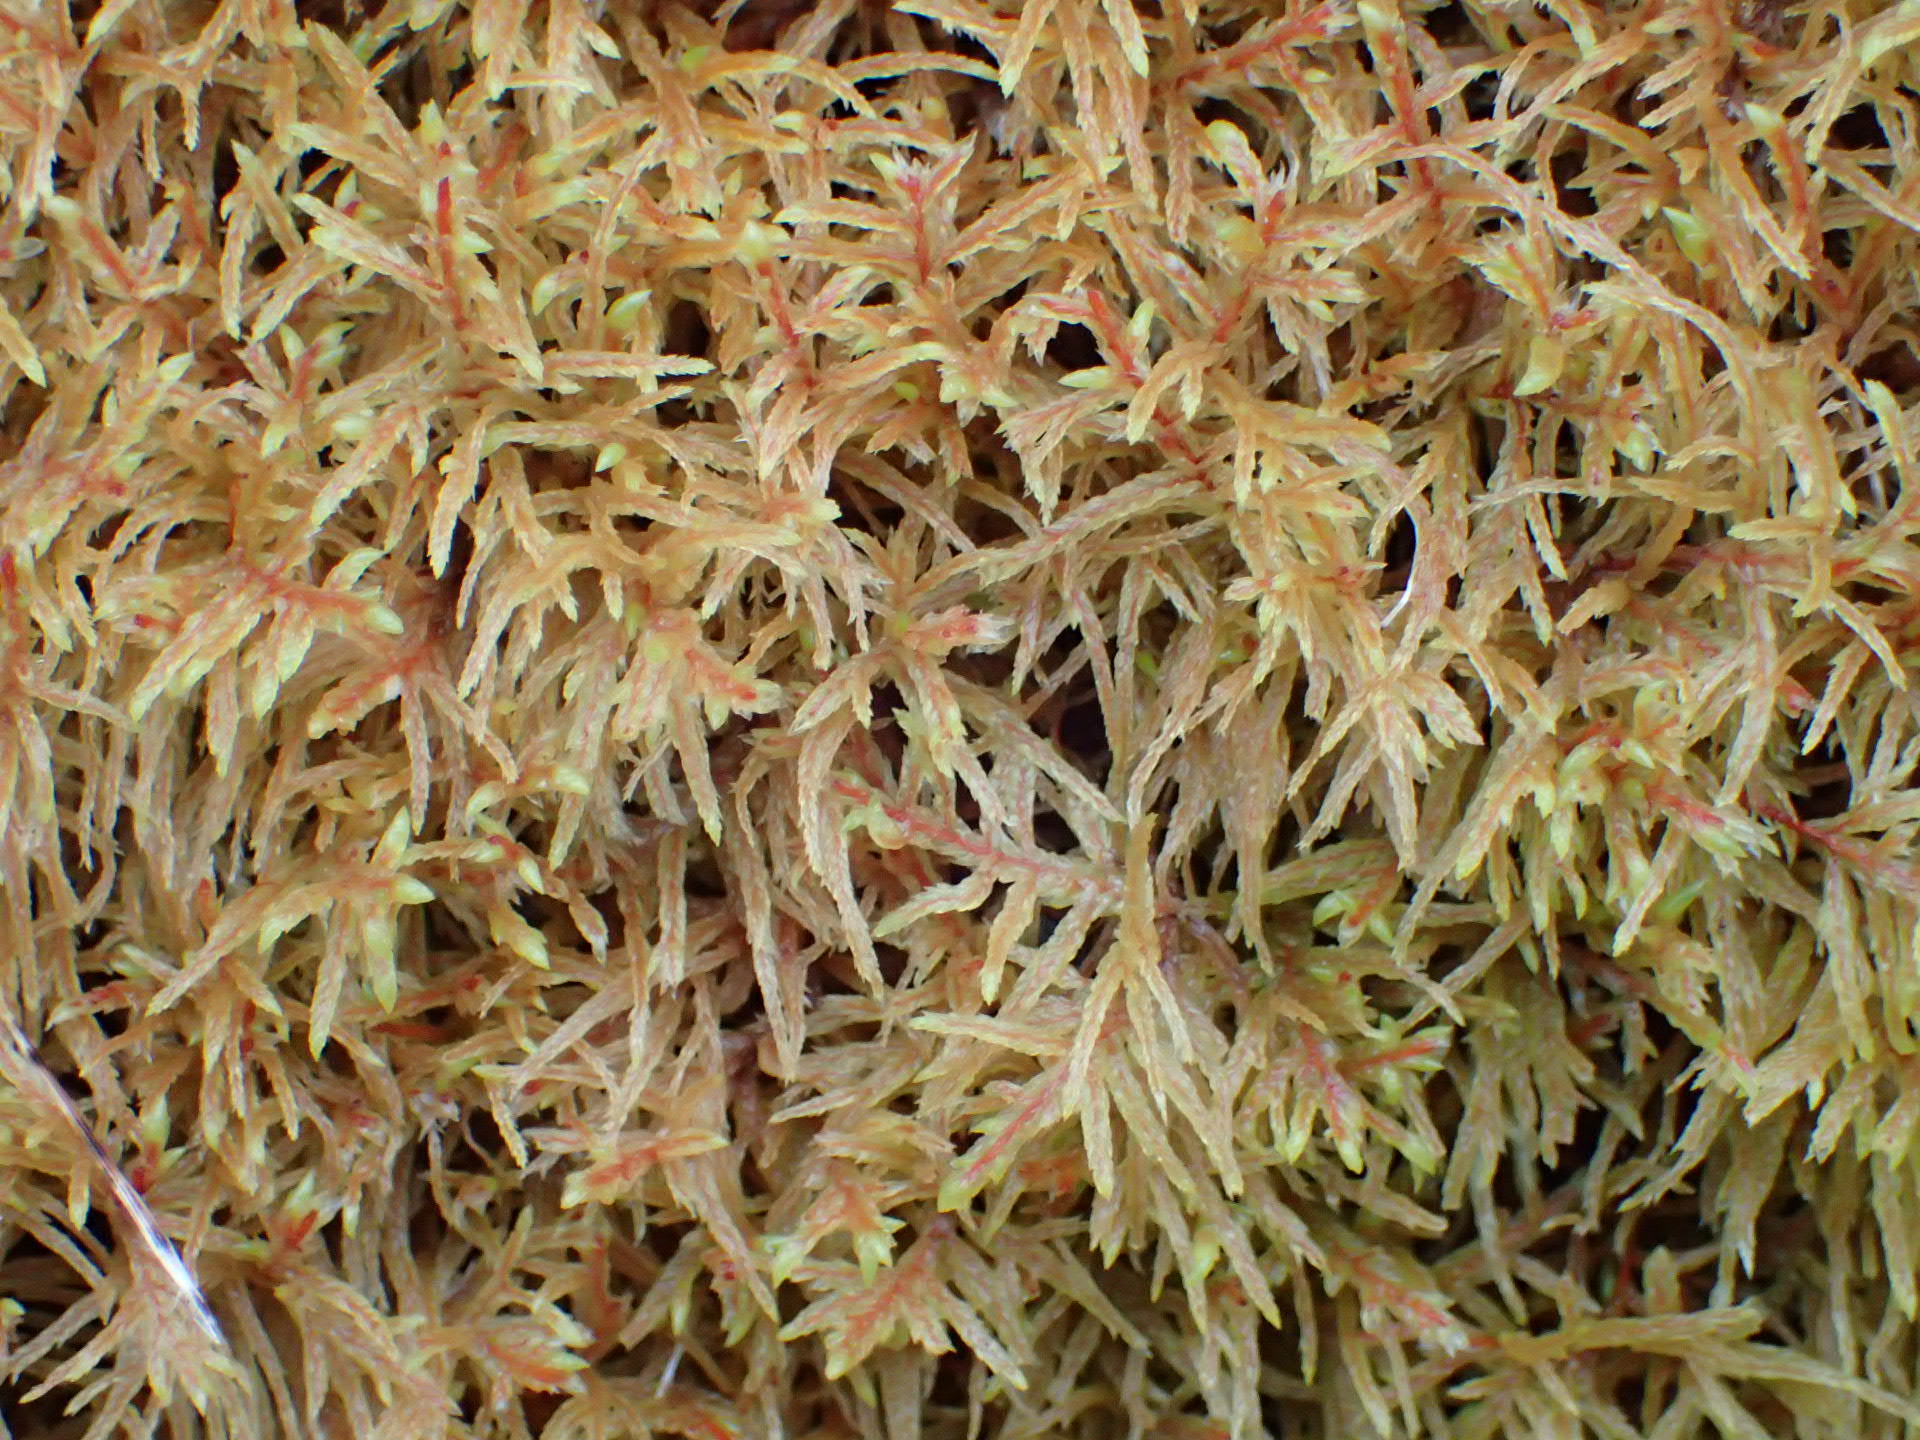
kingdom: Plantae
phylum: Bryophyta
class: Bryopsida
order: Hypnales
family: Hylocomiaceae
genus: Pleurozium
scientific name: Pleurozium schreberi
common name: Red-stemmed feather moss
